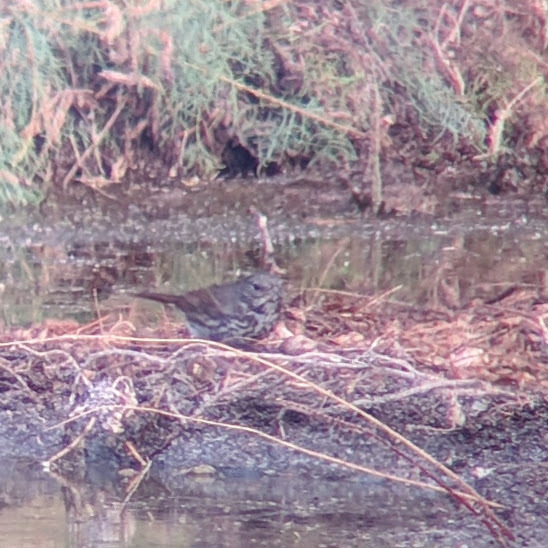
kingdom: Animalia
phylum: Chordata
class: Aves
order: Passeriformes
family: Passerellidae
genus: Passerella
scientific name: Passerella iliaca
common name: Fox sparrow
